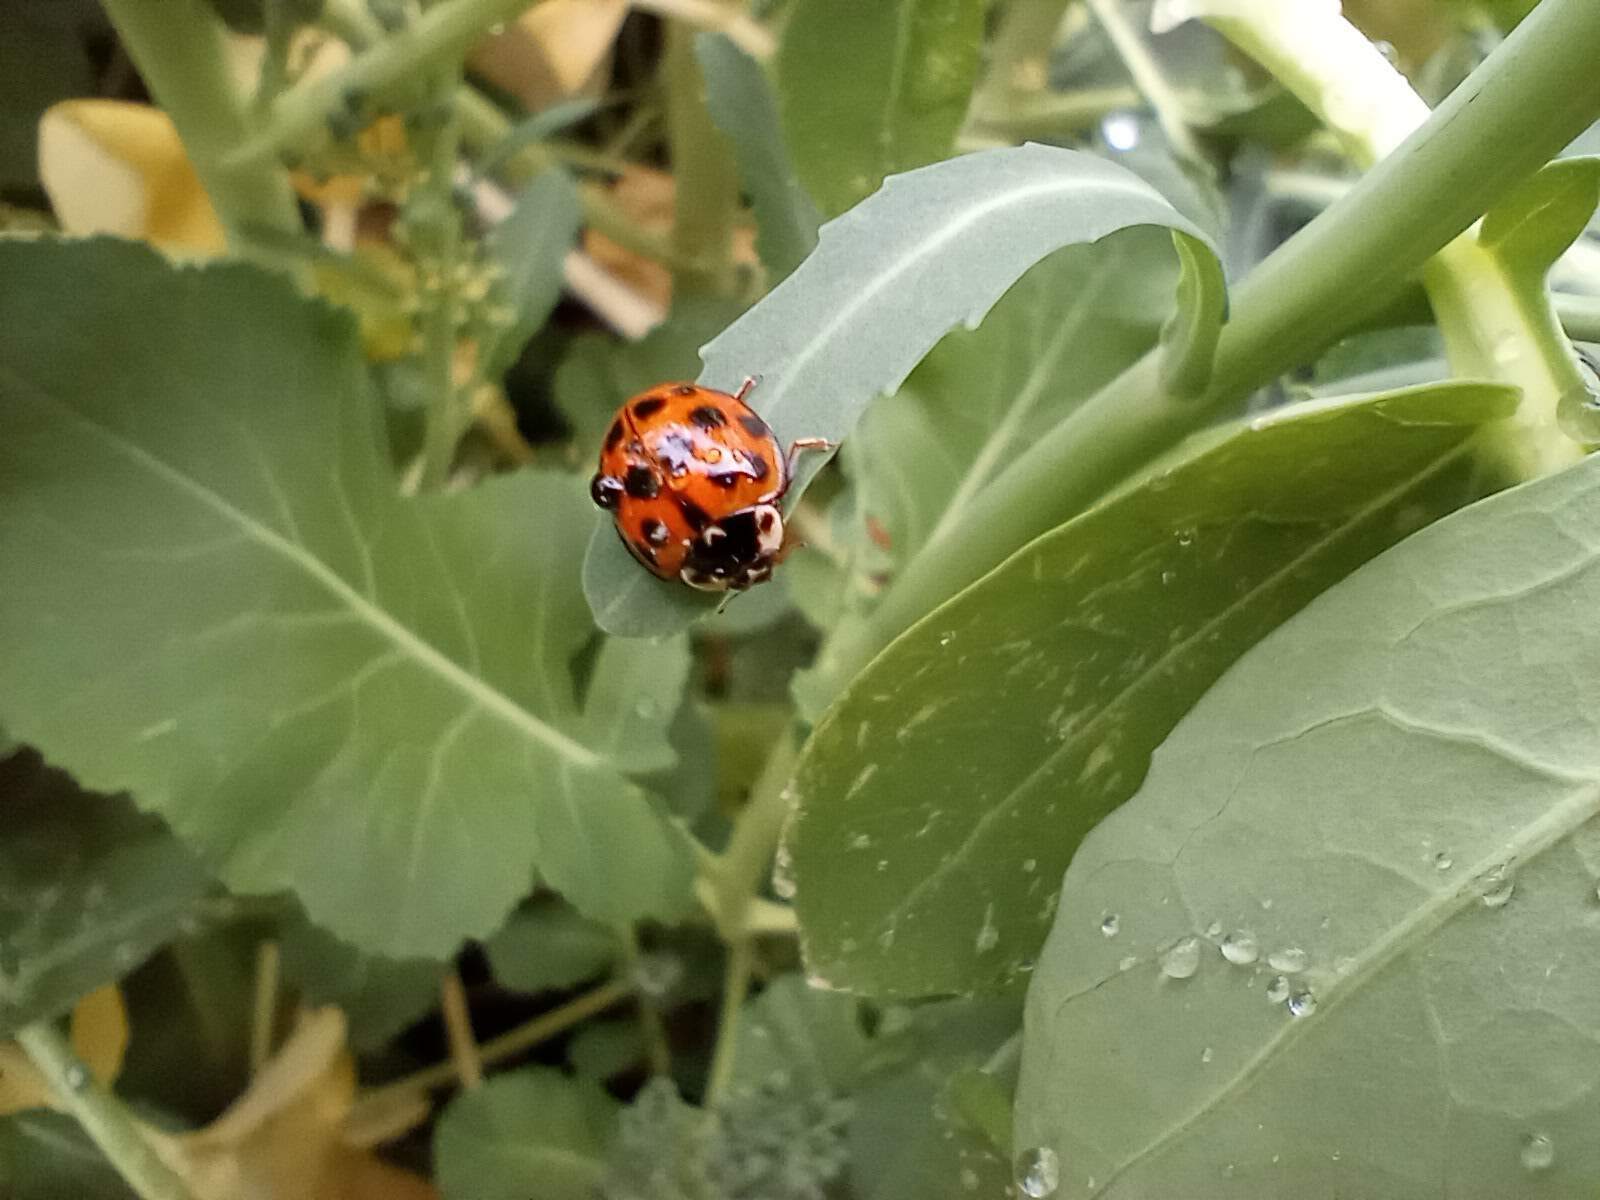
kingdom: Animalia
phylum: Arthropoda
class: Insecta
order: Coleoptera
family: Coccinellidae
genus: Harmonia
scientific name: Harmonia axyridis
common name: Harlequin ladybird
